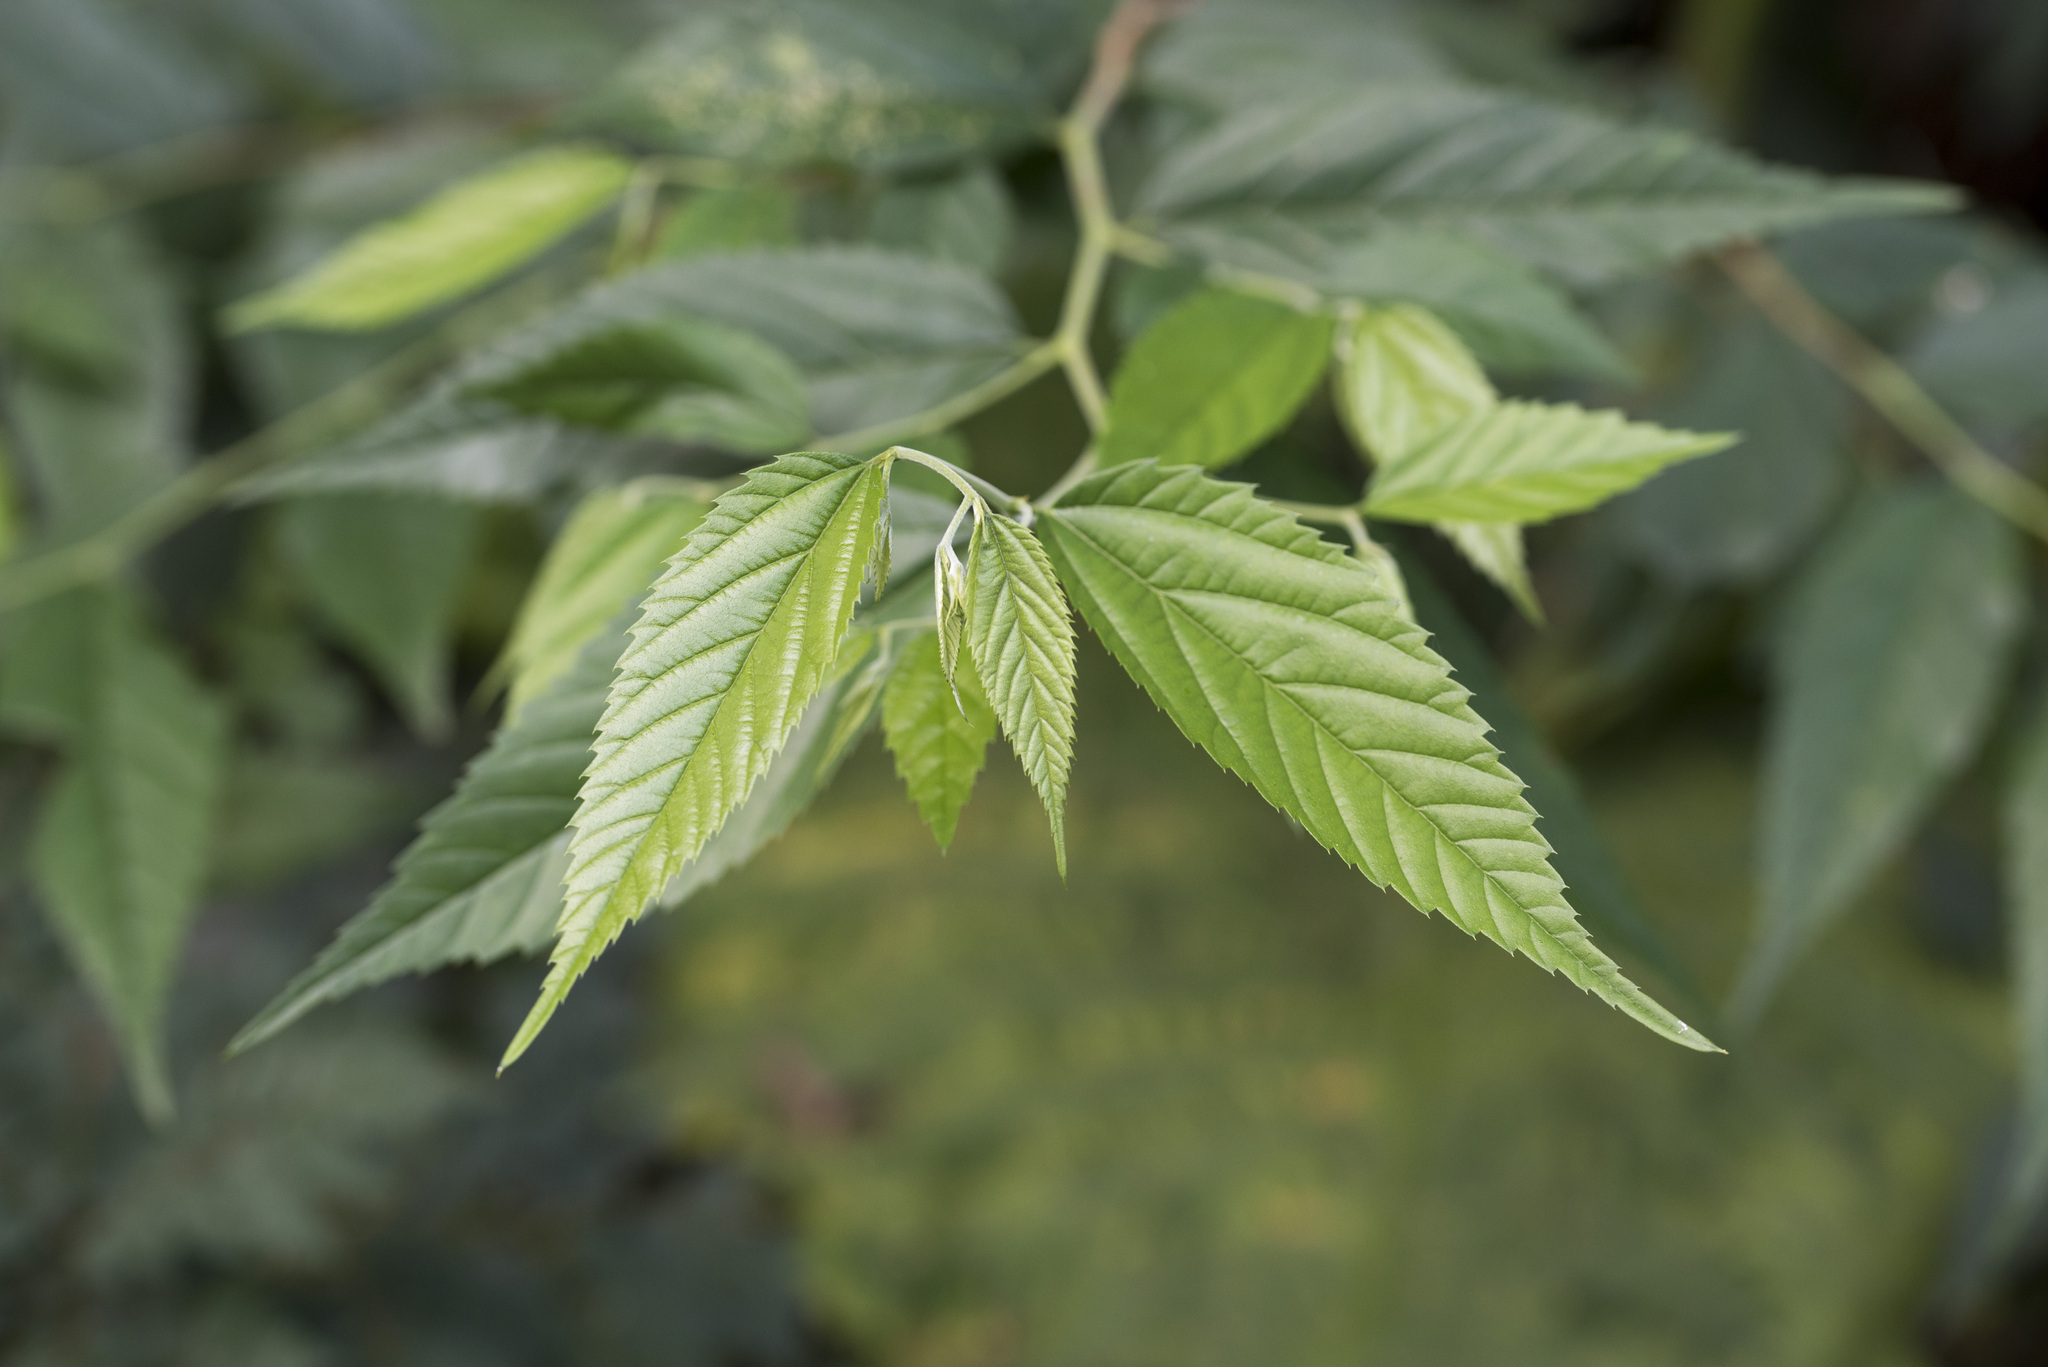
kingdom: Plantae
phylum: Tracheophyta
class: Magnoliopsida
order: Rosales
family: Cannabaceae
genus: Aphananthe
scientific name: Aphananthe aspera
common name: Mukutree
